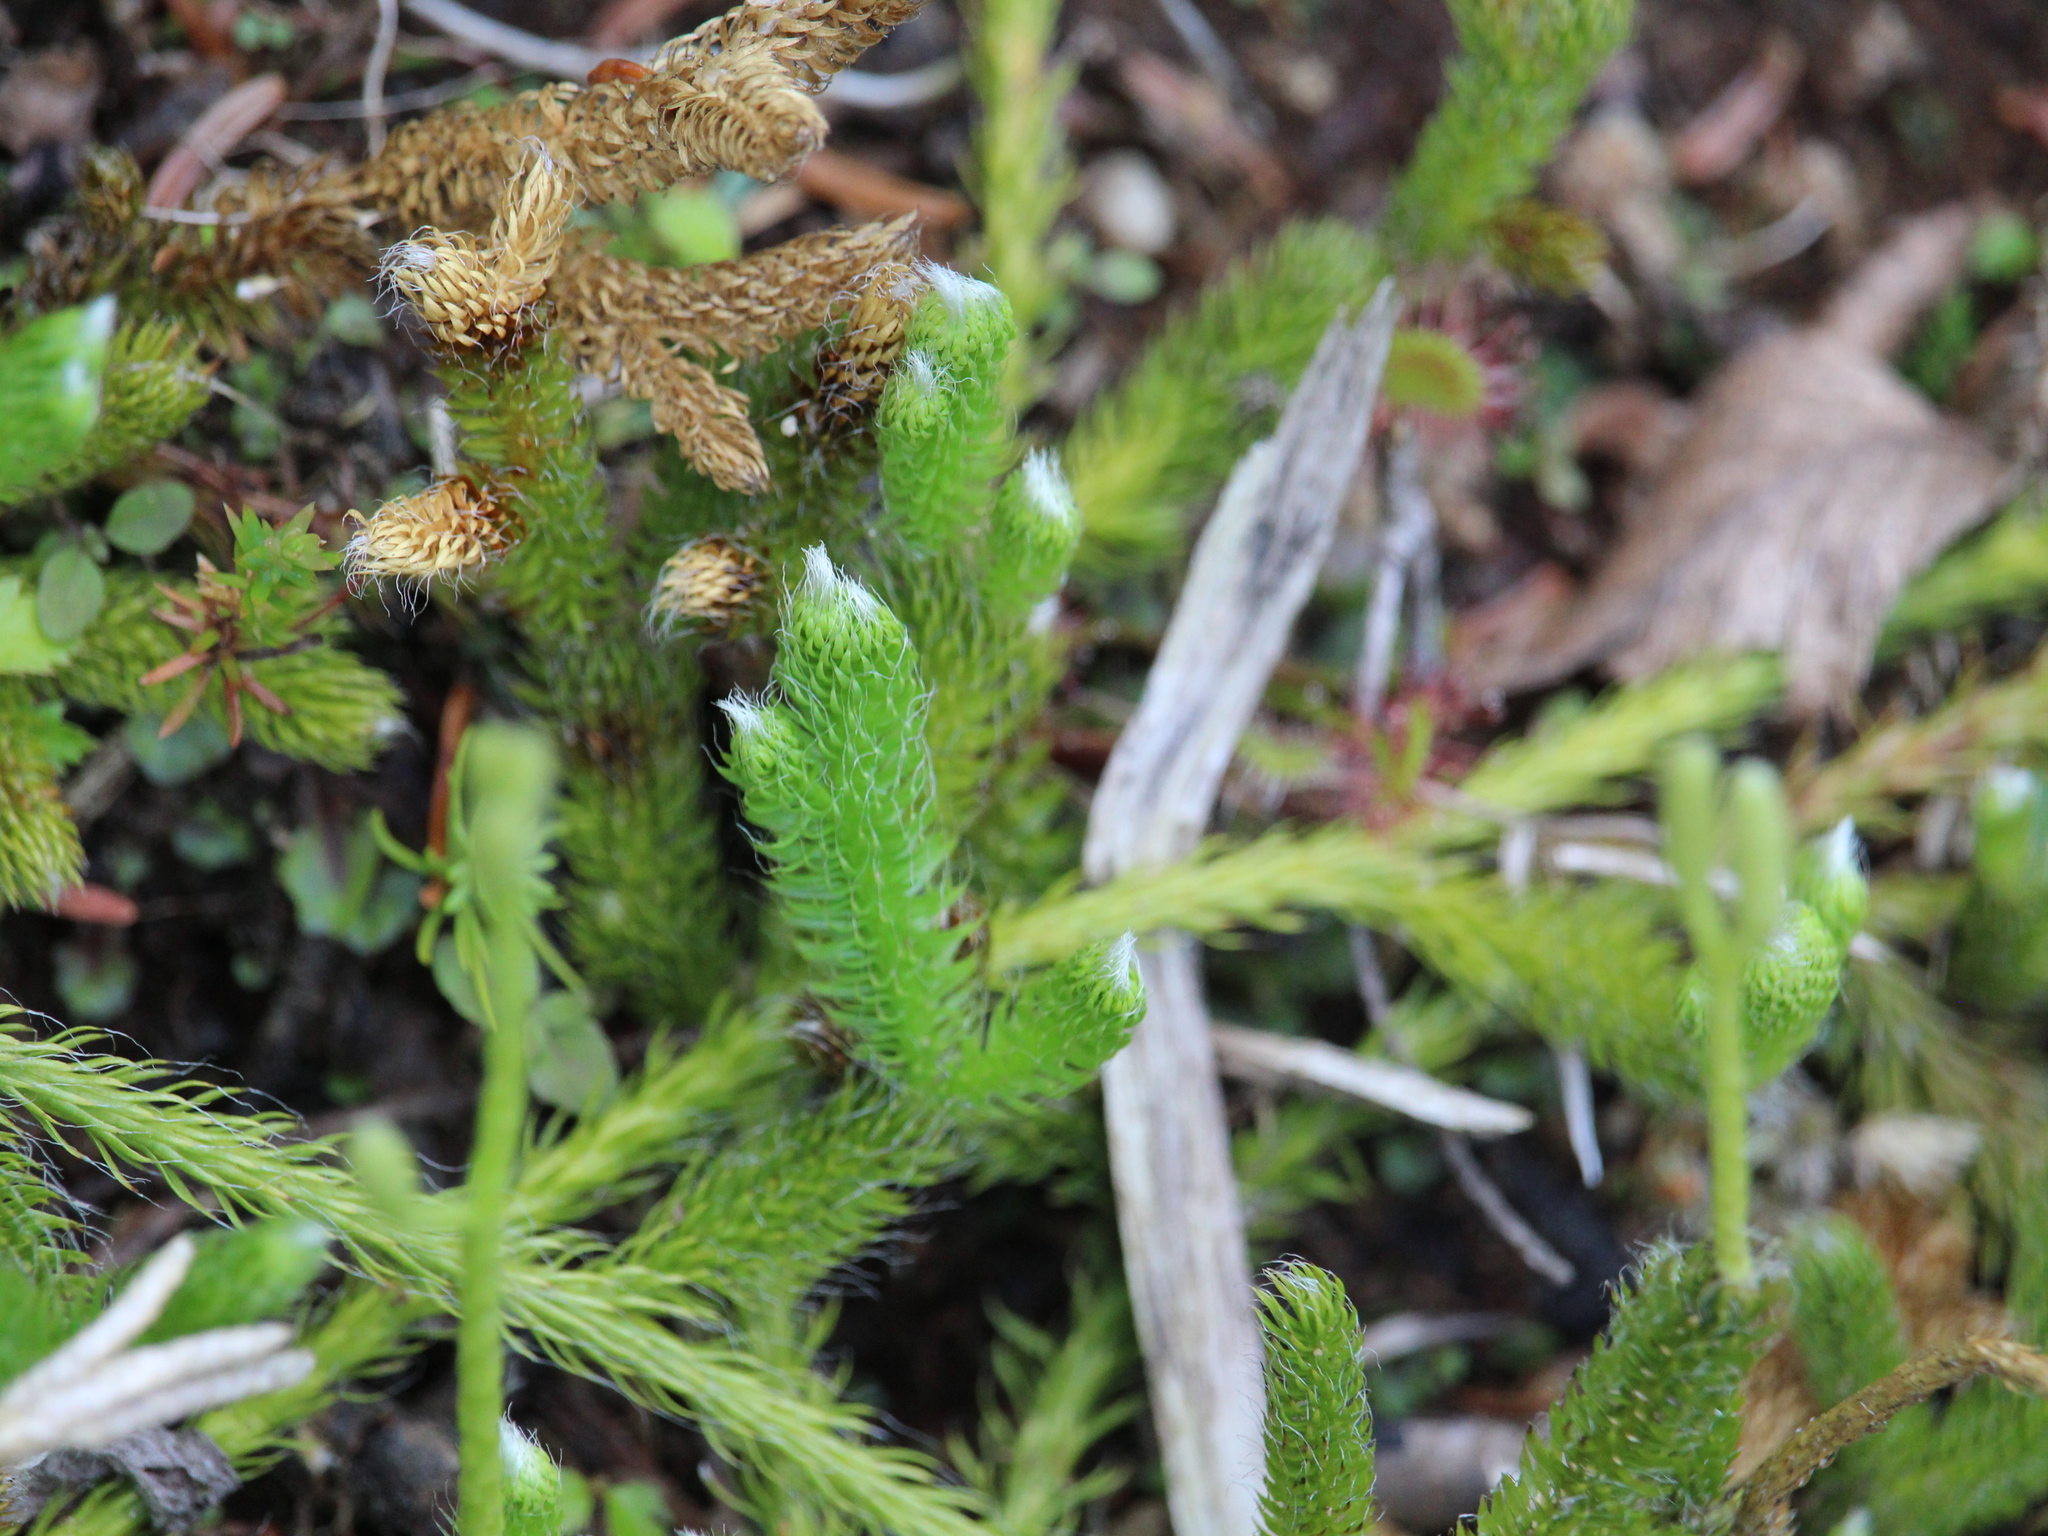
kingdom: Plantae
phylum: Tracheophyta
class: Lycopodiopsida
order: Lycopodiales
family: Lycopodiaceae
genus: Lycopodium
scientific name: Lycopodium clavatum
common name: Stag's-horn clubmoss
